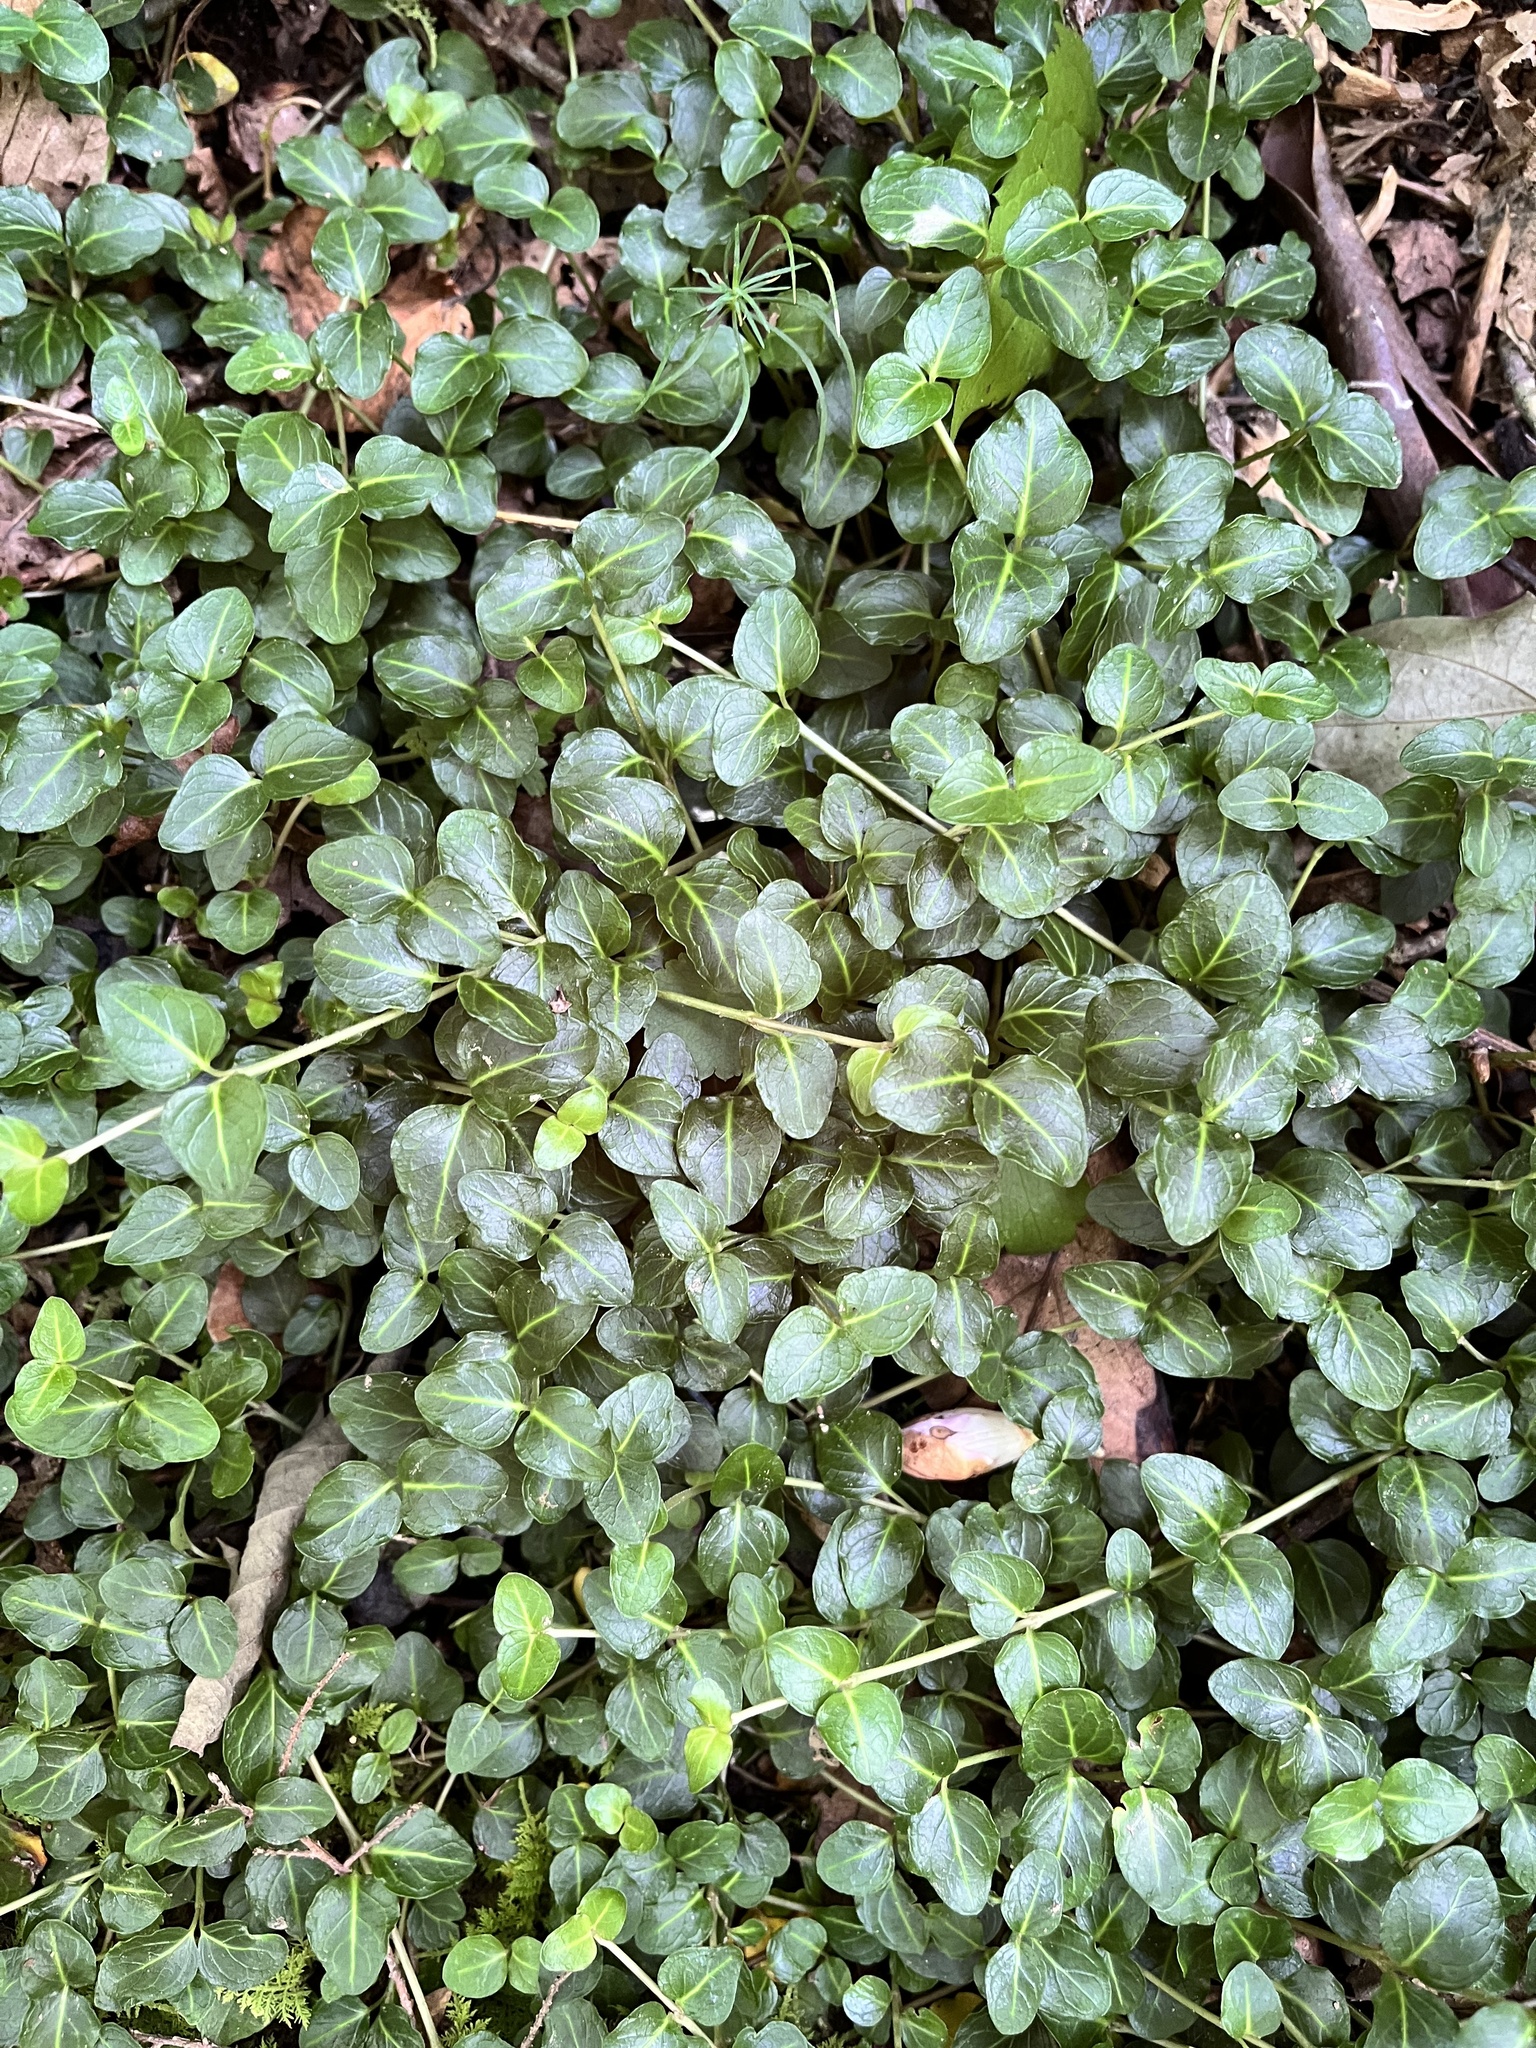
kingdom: Plantae
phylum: Tracheophyta
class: Magnoliopsida
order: Gentianales
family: Rubiaceae
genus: Mitchella
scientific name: Mitchella repens
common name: Partridge-berry
